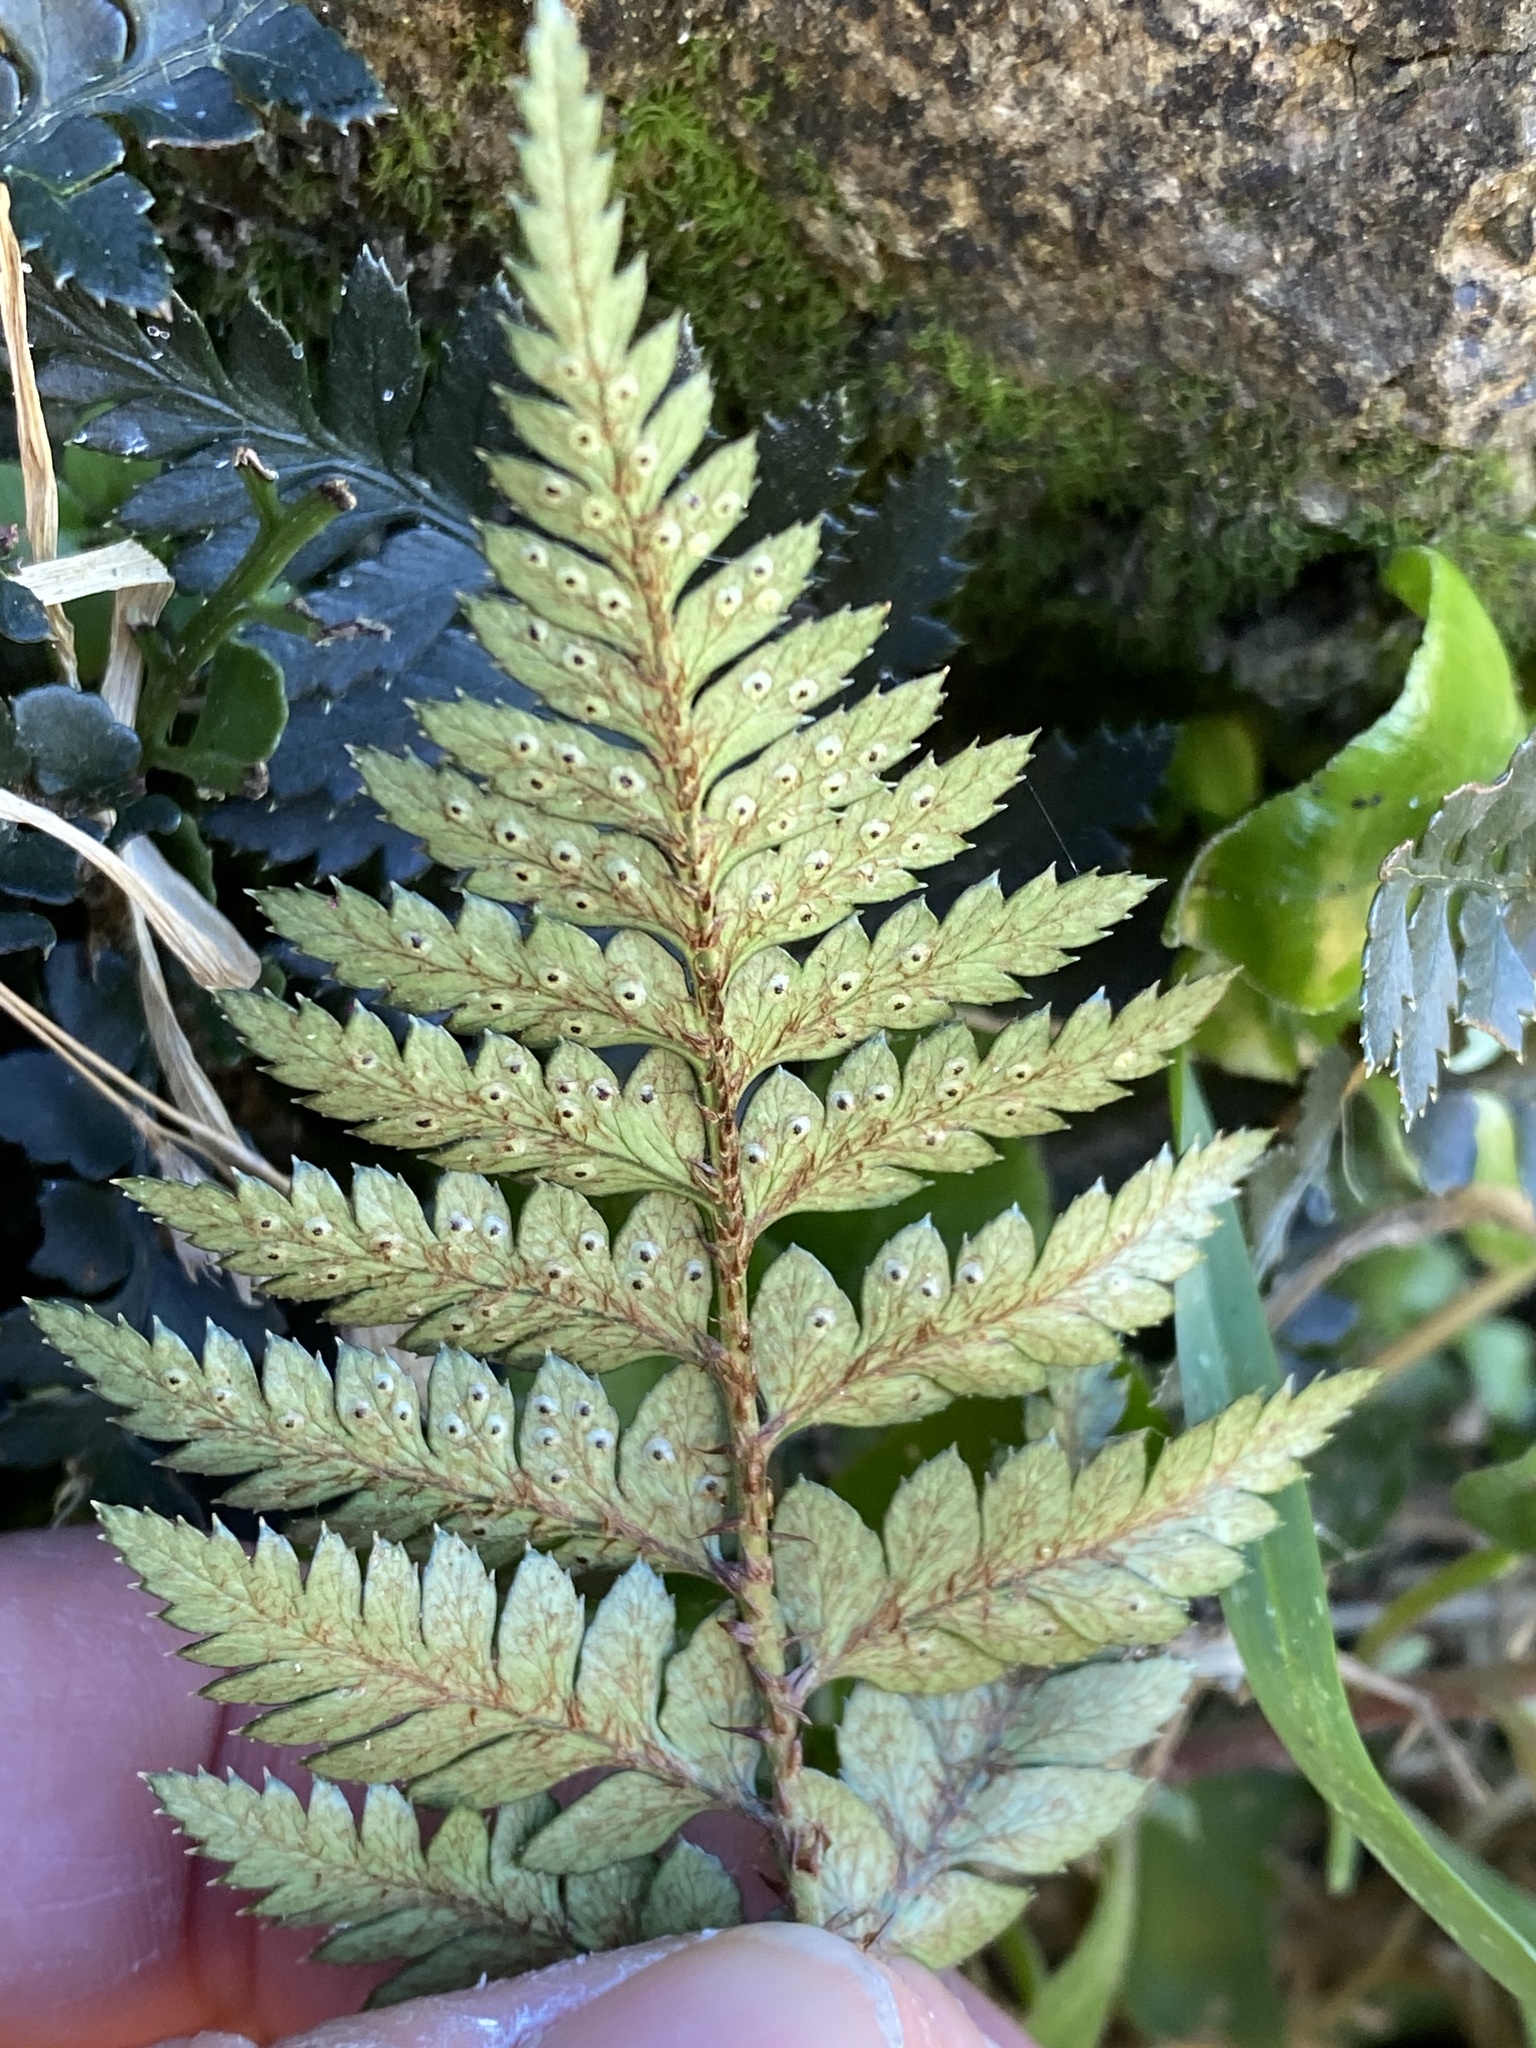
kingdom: Plantae
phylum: Tracheophyta
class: Polypodiopsida
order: Polypodiales
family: Dryopteridaceae
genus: Polystichum
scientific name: Polystichum oculatum
